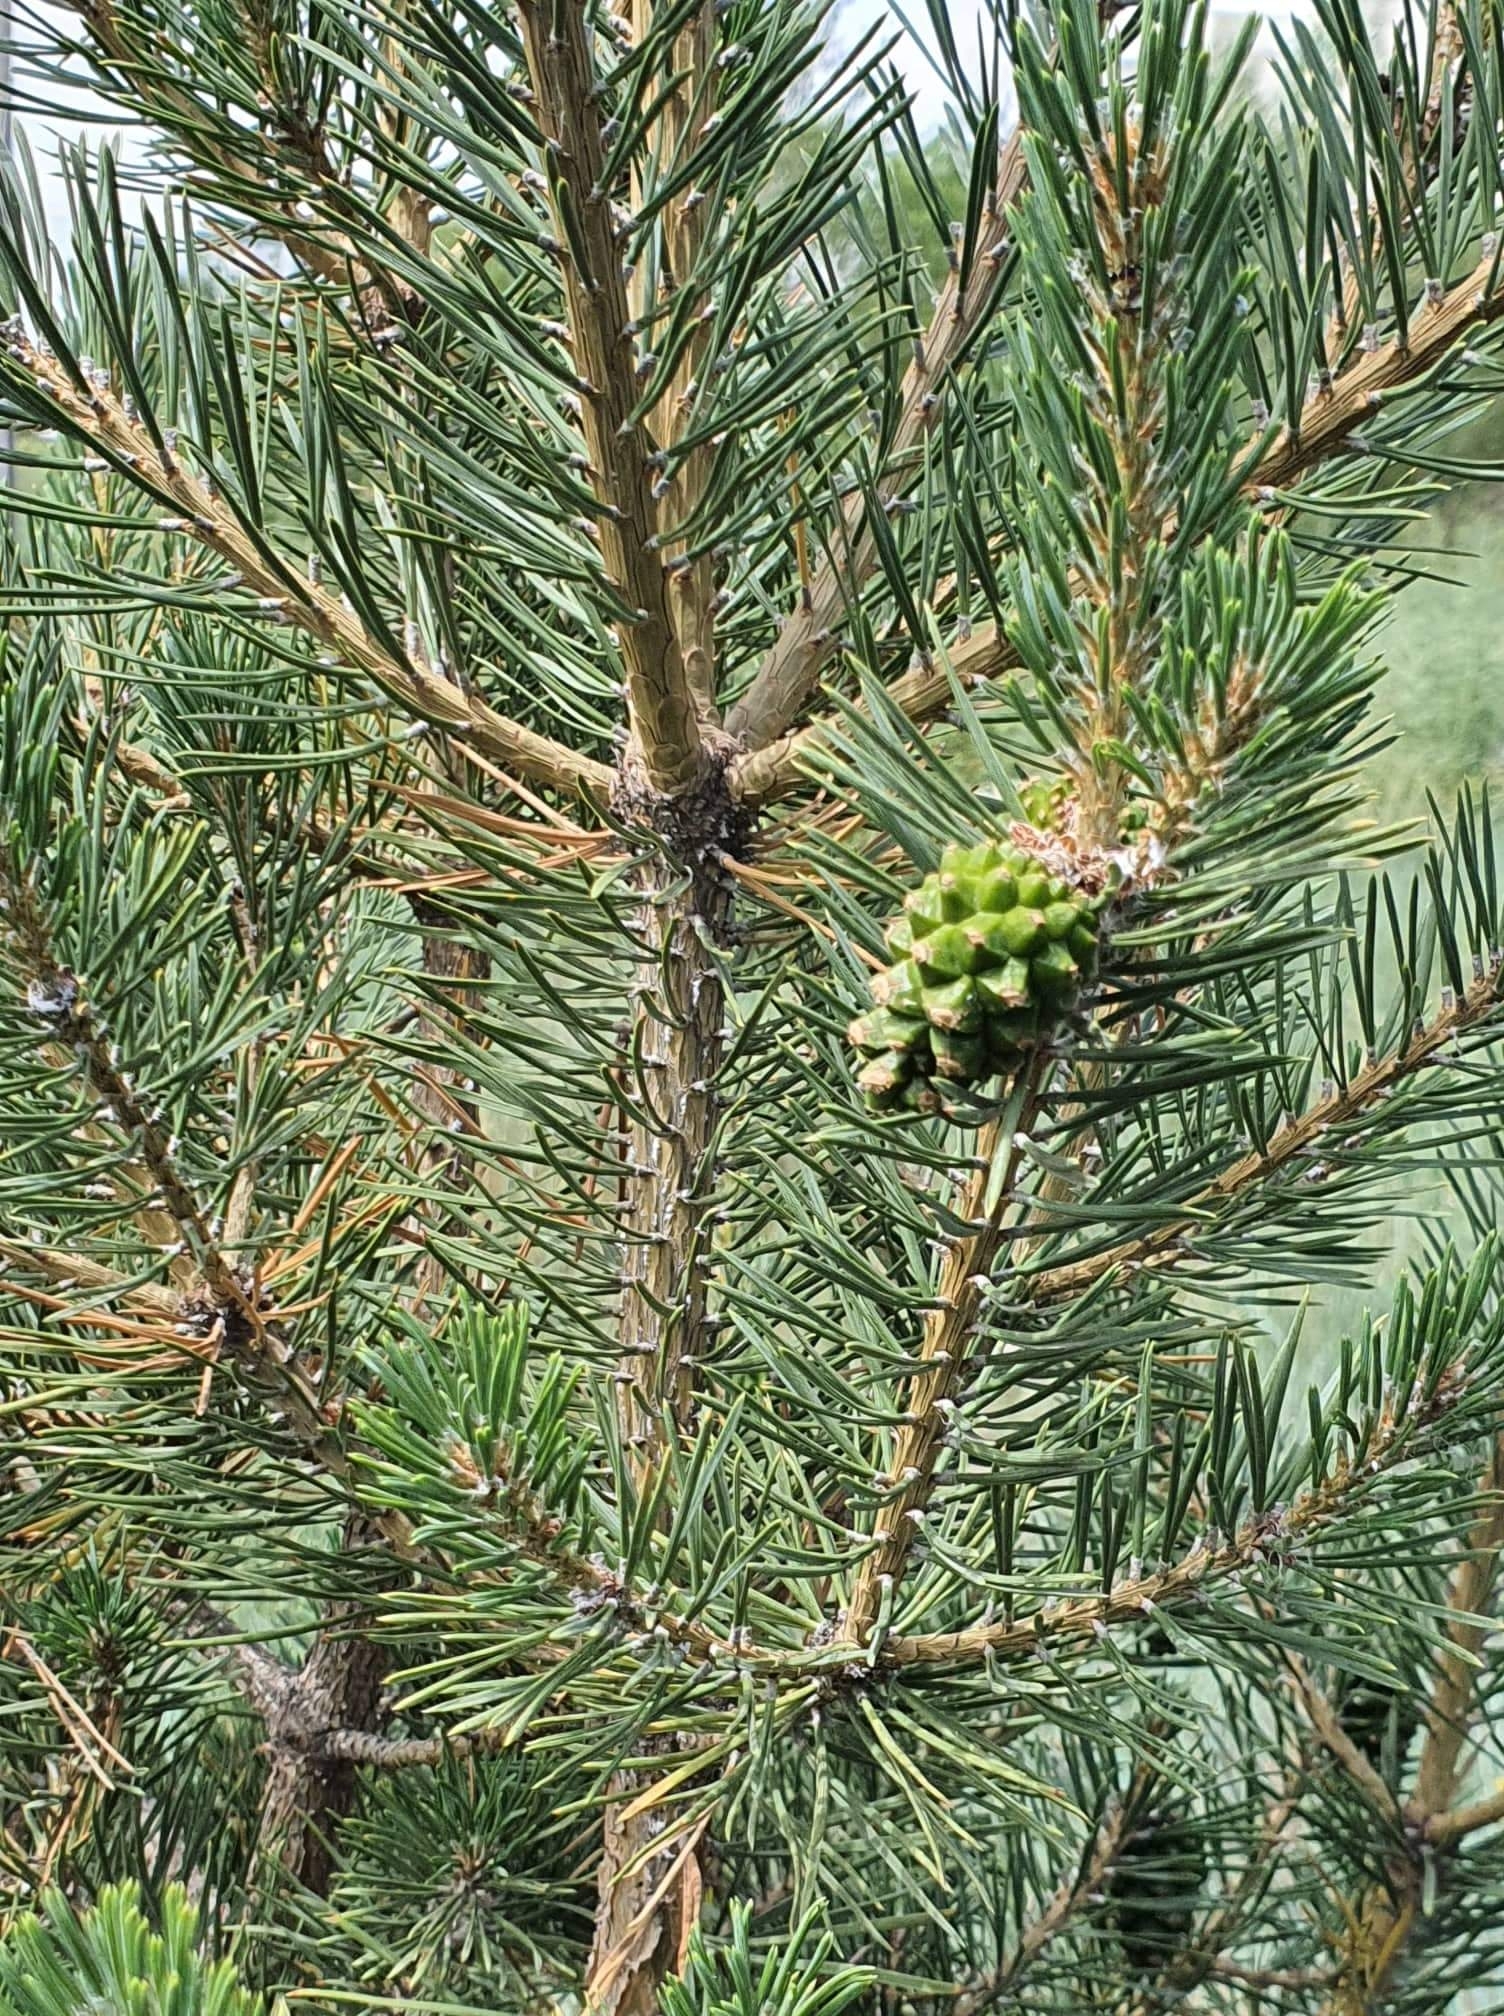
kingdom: Plantae
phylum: Tracheophyta
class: Pinopsida
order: Pinales
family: Pinaceae
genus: Pinus
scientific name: Pinus sylvestris
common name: Scots pine
